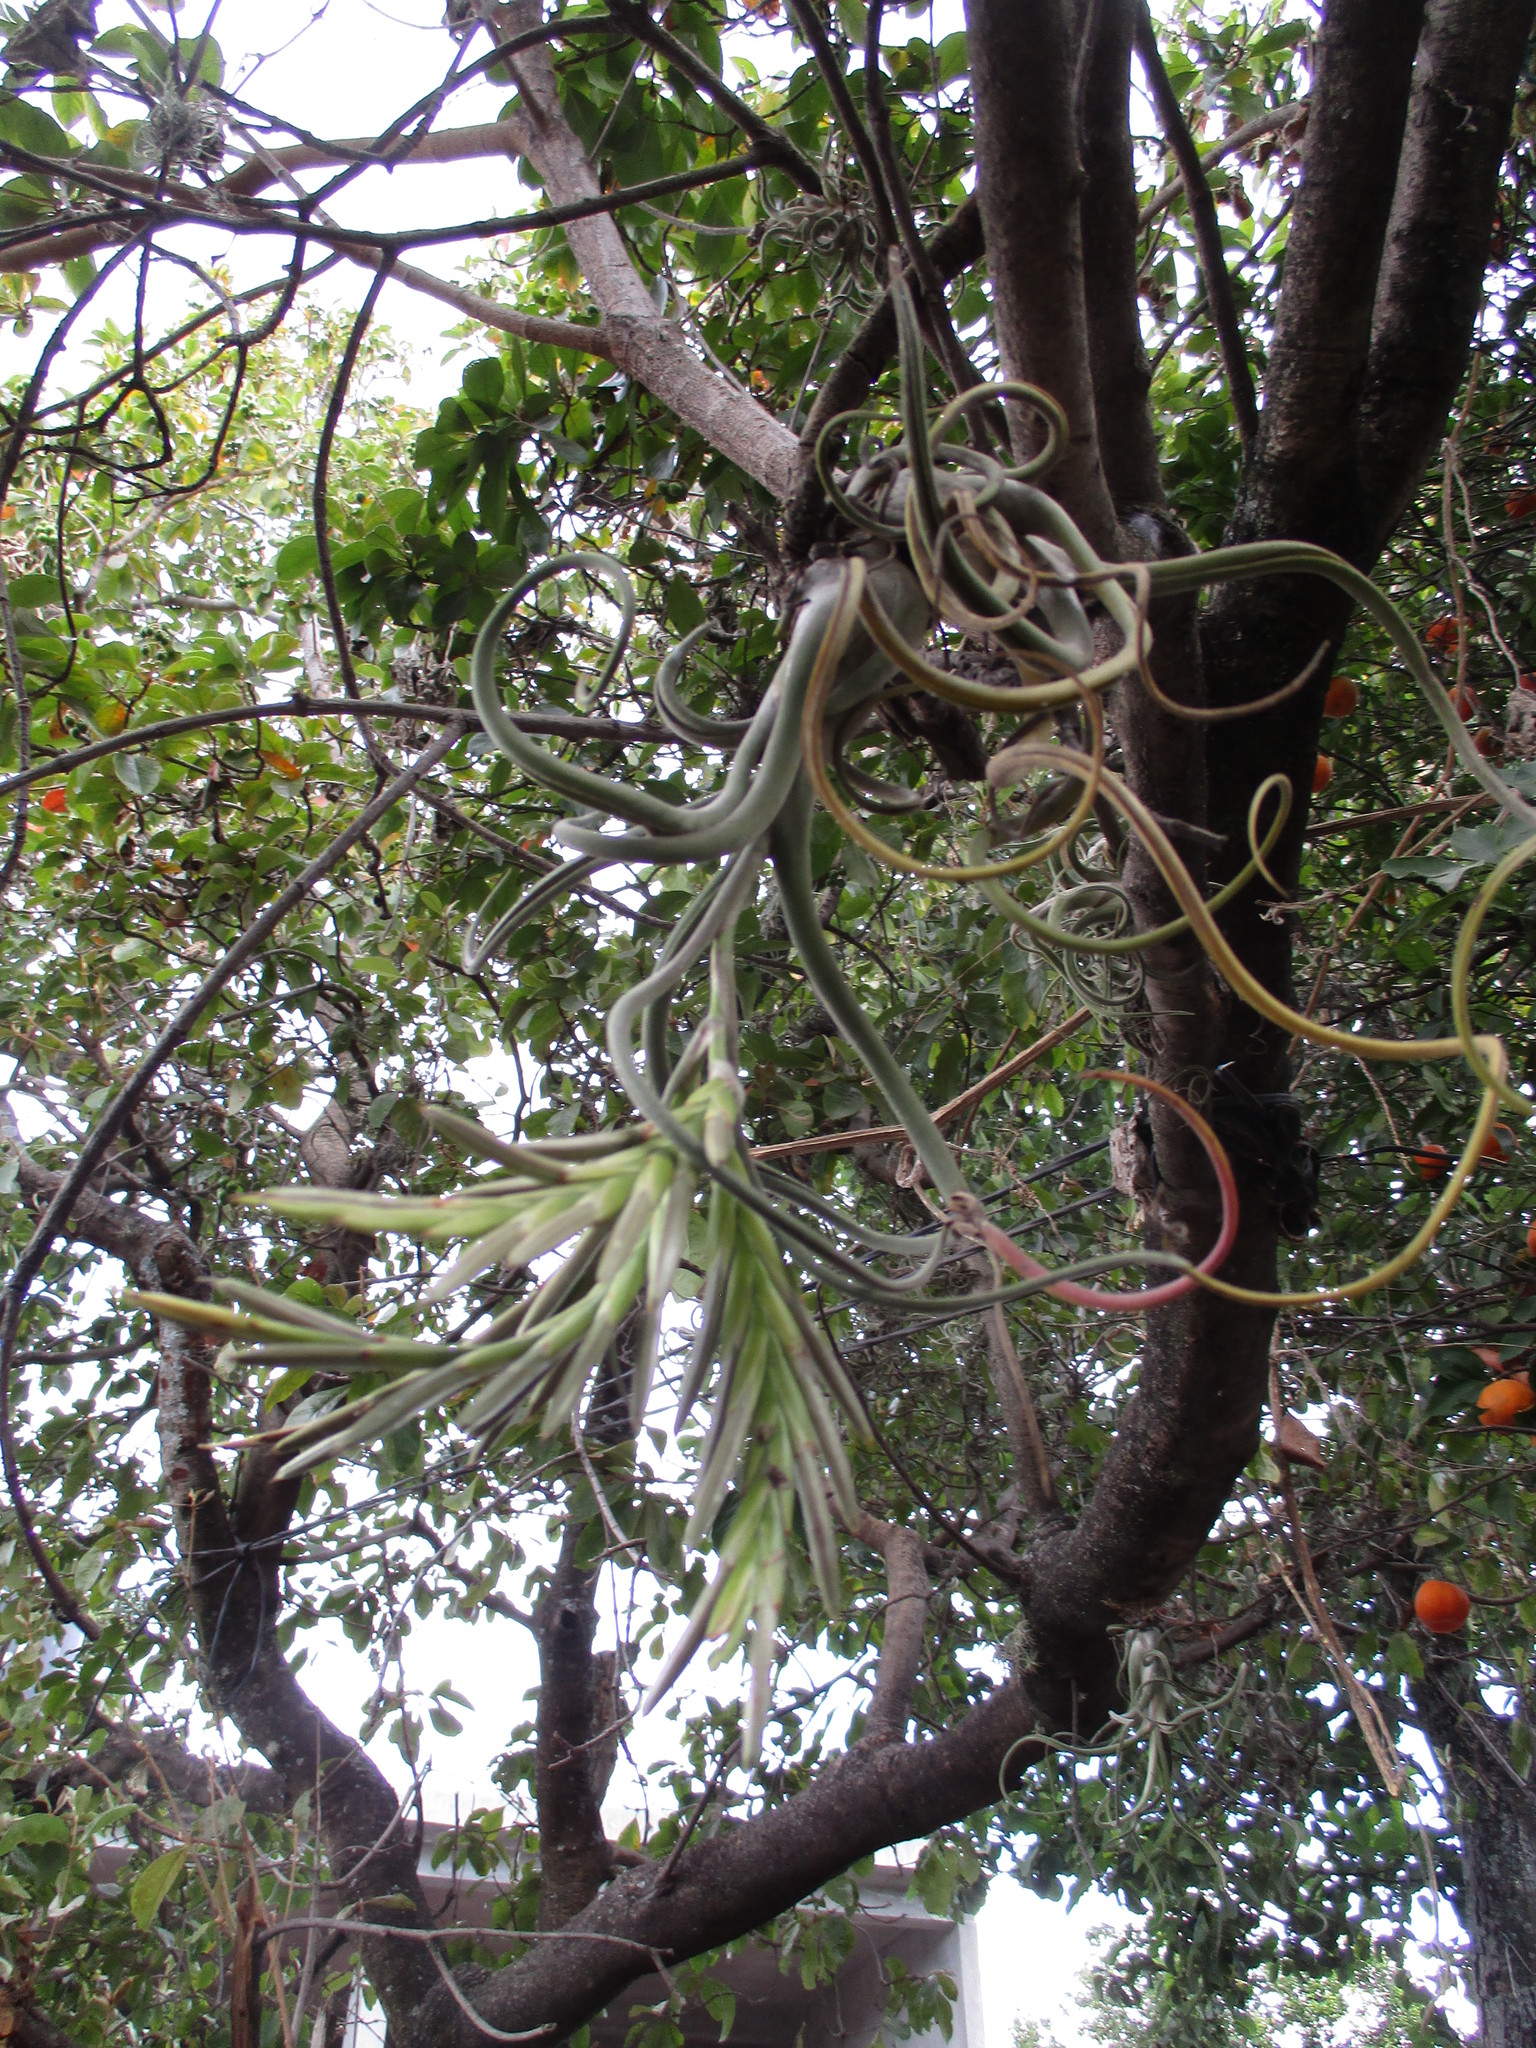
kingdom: Plantae
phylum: Tracheophyta
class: Liliopsida
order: Poales
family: Bromeliaceae
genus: Tillandsia
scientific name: Tillandsia caput-medusae
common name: Octopus plant
